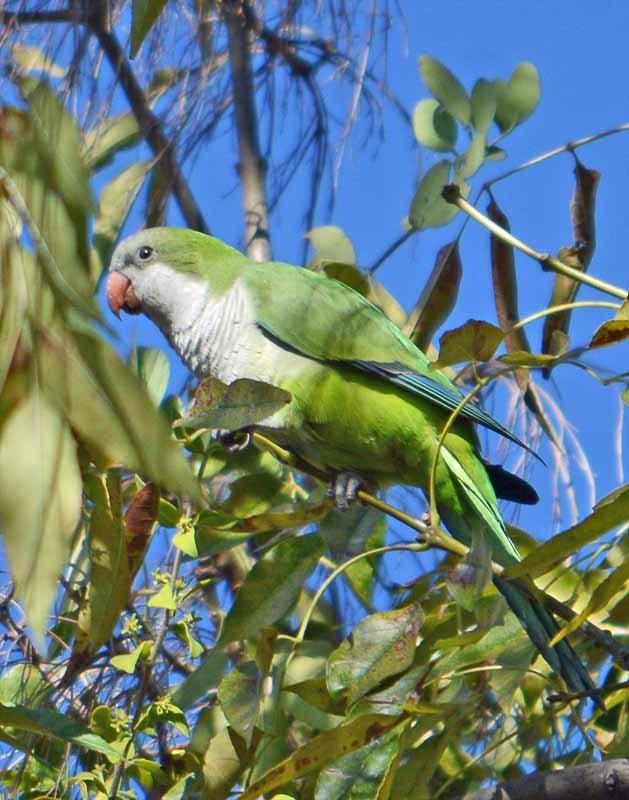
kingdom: Animalia
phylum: Chordata
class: Aves
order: Psittaciformes
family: Psittacidae
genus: Myiopsitta
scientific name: Myiopsitta monachus
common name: Monk parakeet
